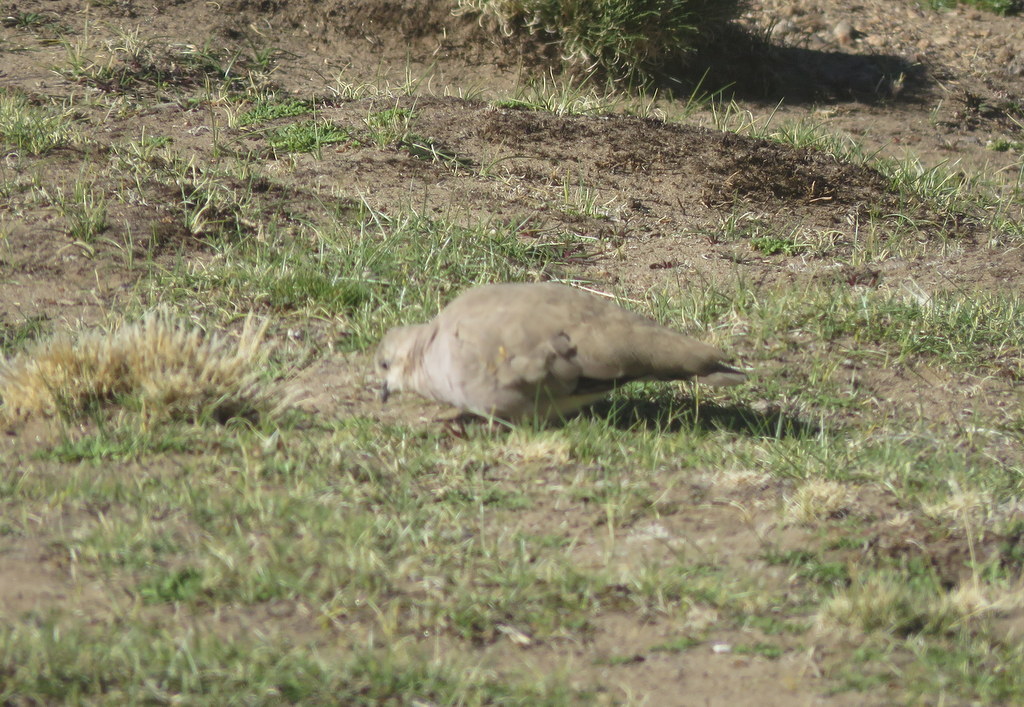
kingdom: Animalia
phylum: Chordata
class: Aves
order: Columbiformes
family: Columbidae
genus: Metriopelia
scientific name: Metriopelia aymara
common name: Golden-spotted ground dove
